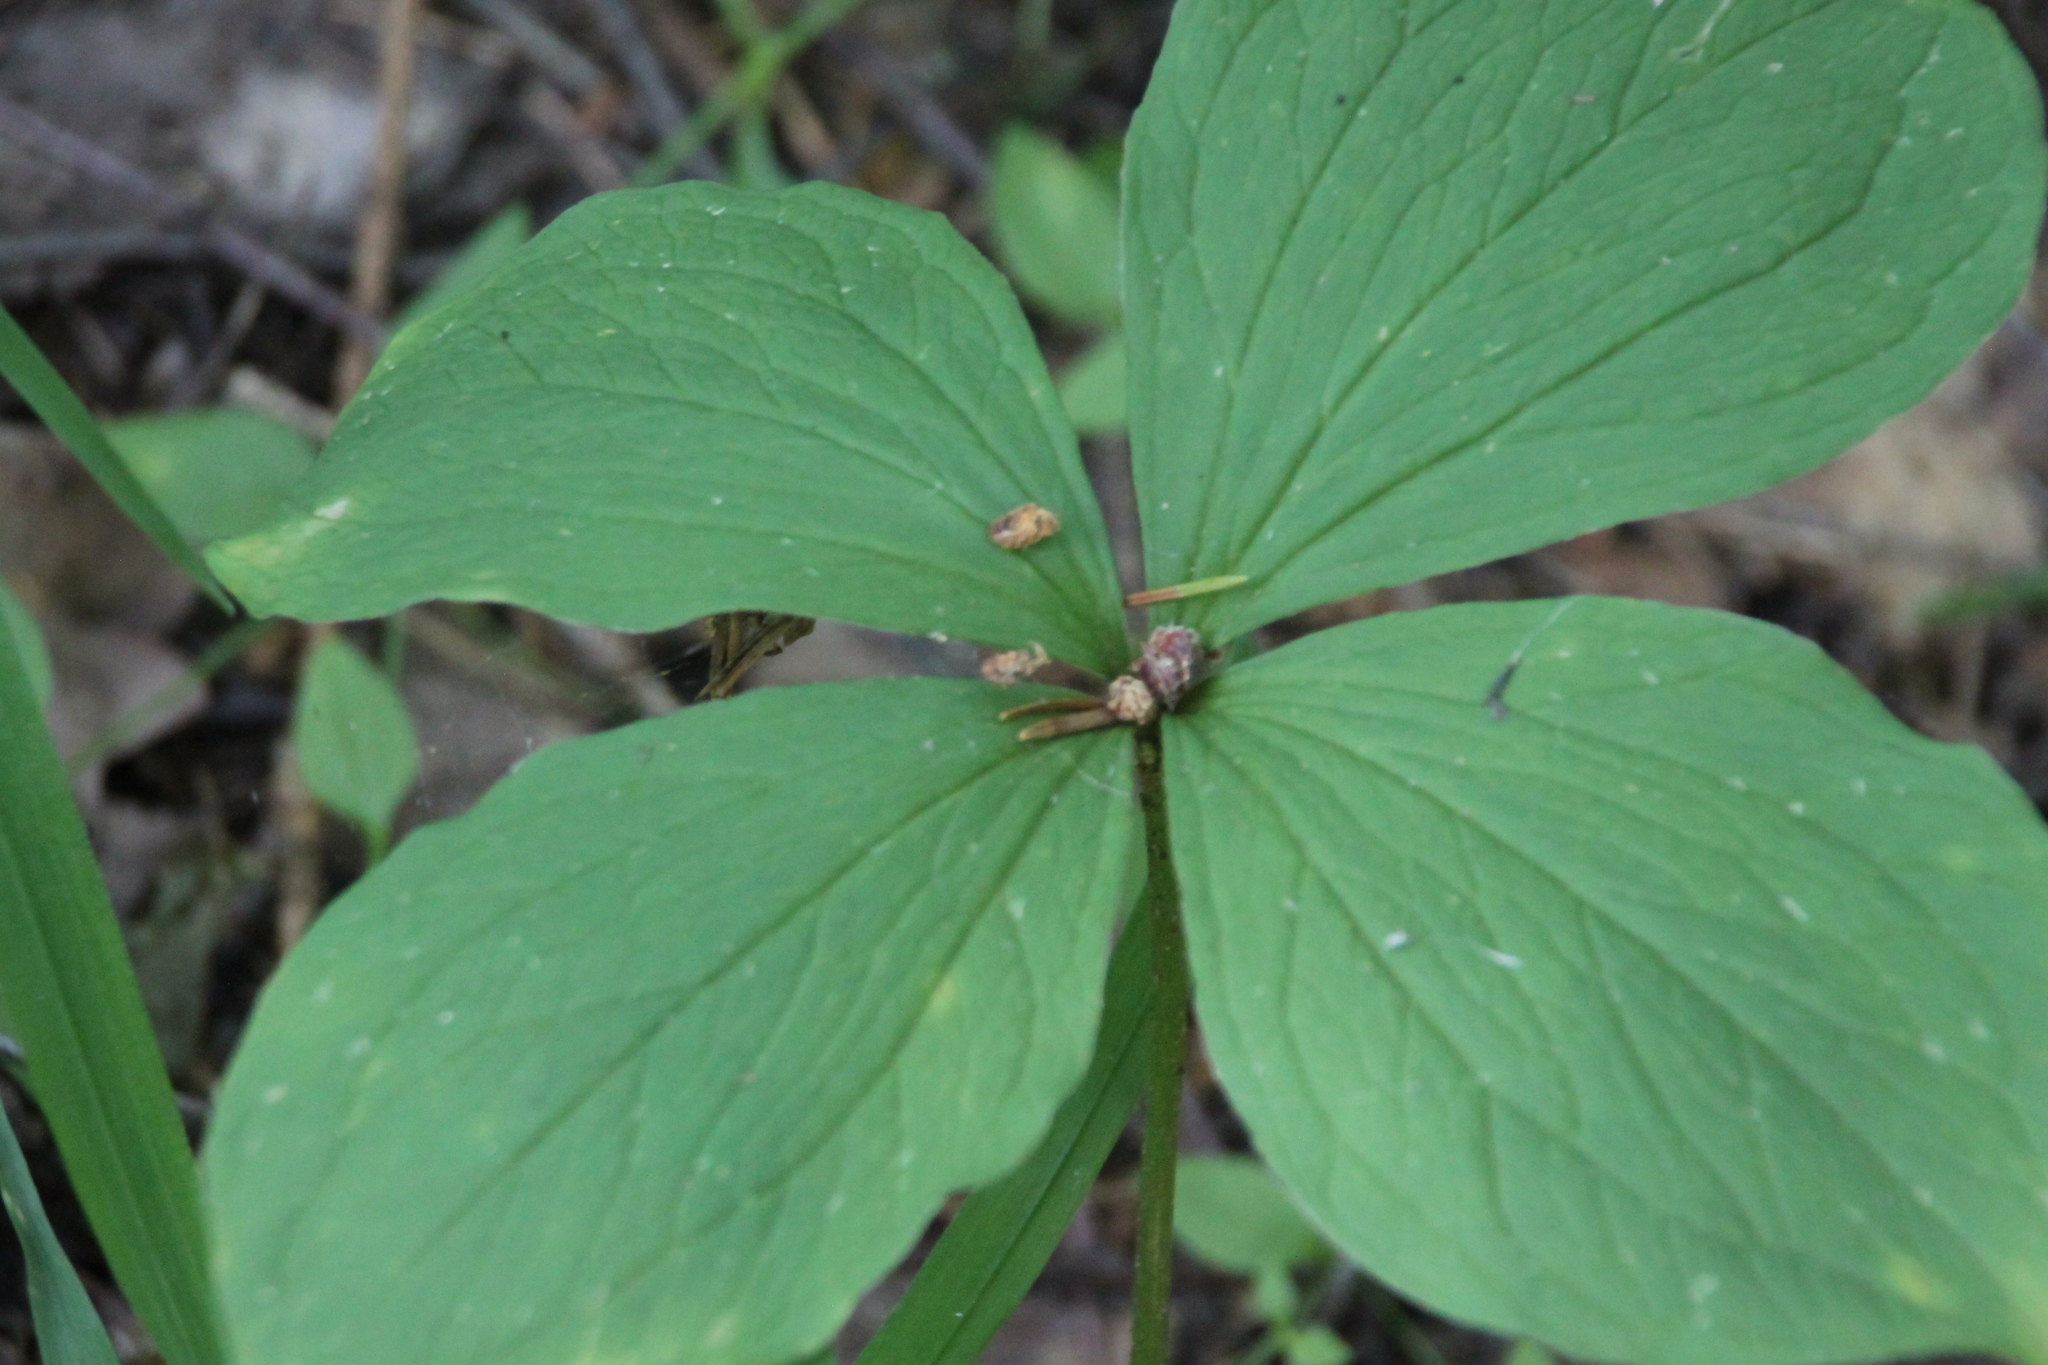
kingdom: Plantae
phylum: Tracheophyta
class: Liliopsida
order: Liliales
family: Melanthiaceae
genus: Paris
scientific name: Paris quadrifolia
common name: Herb-paris
